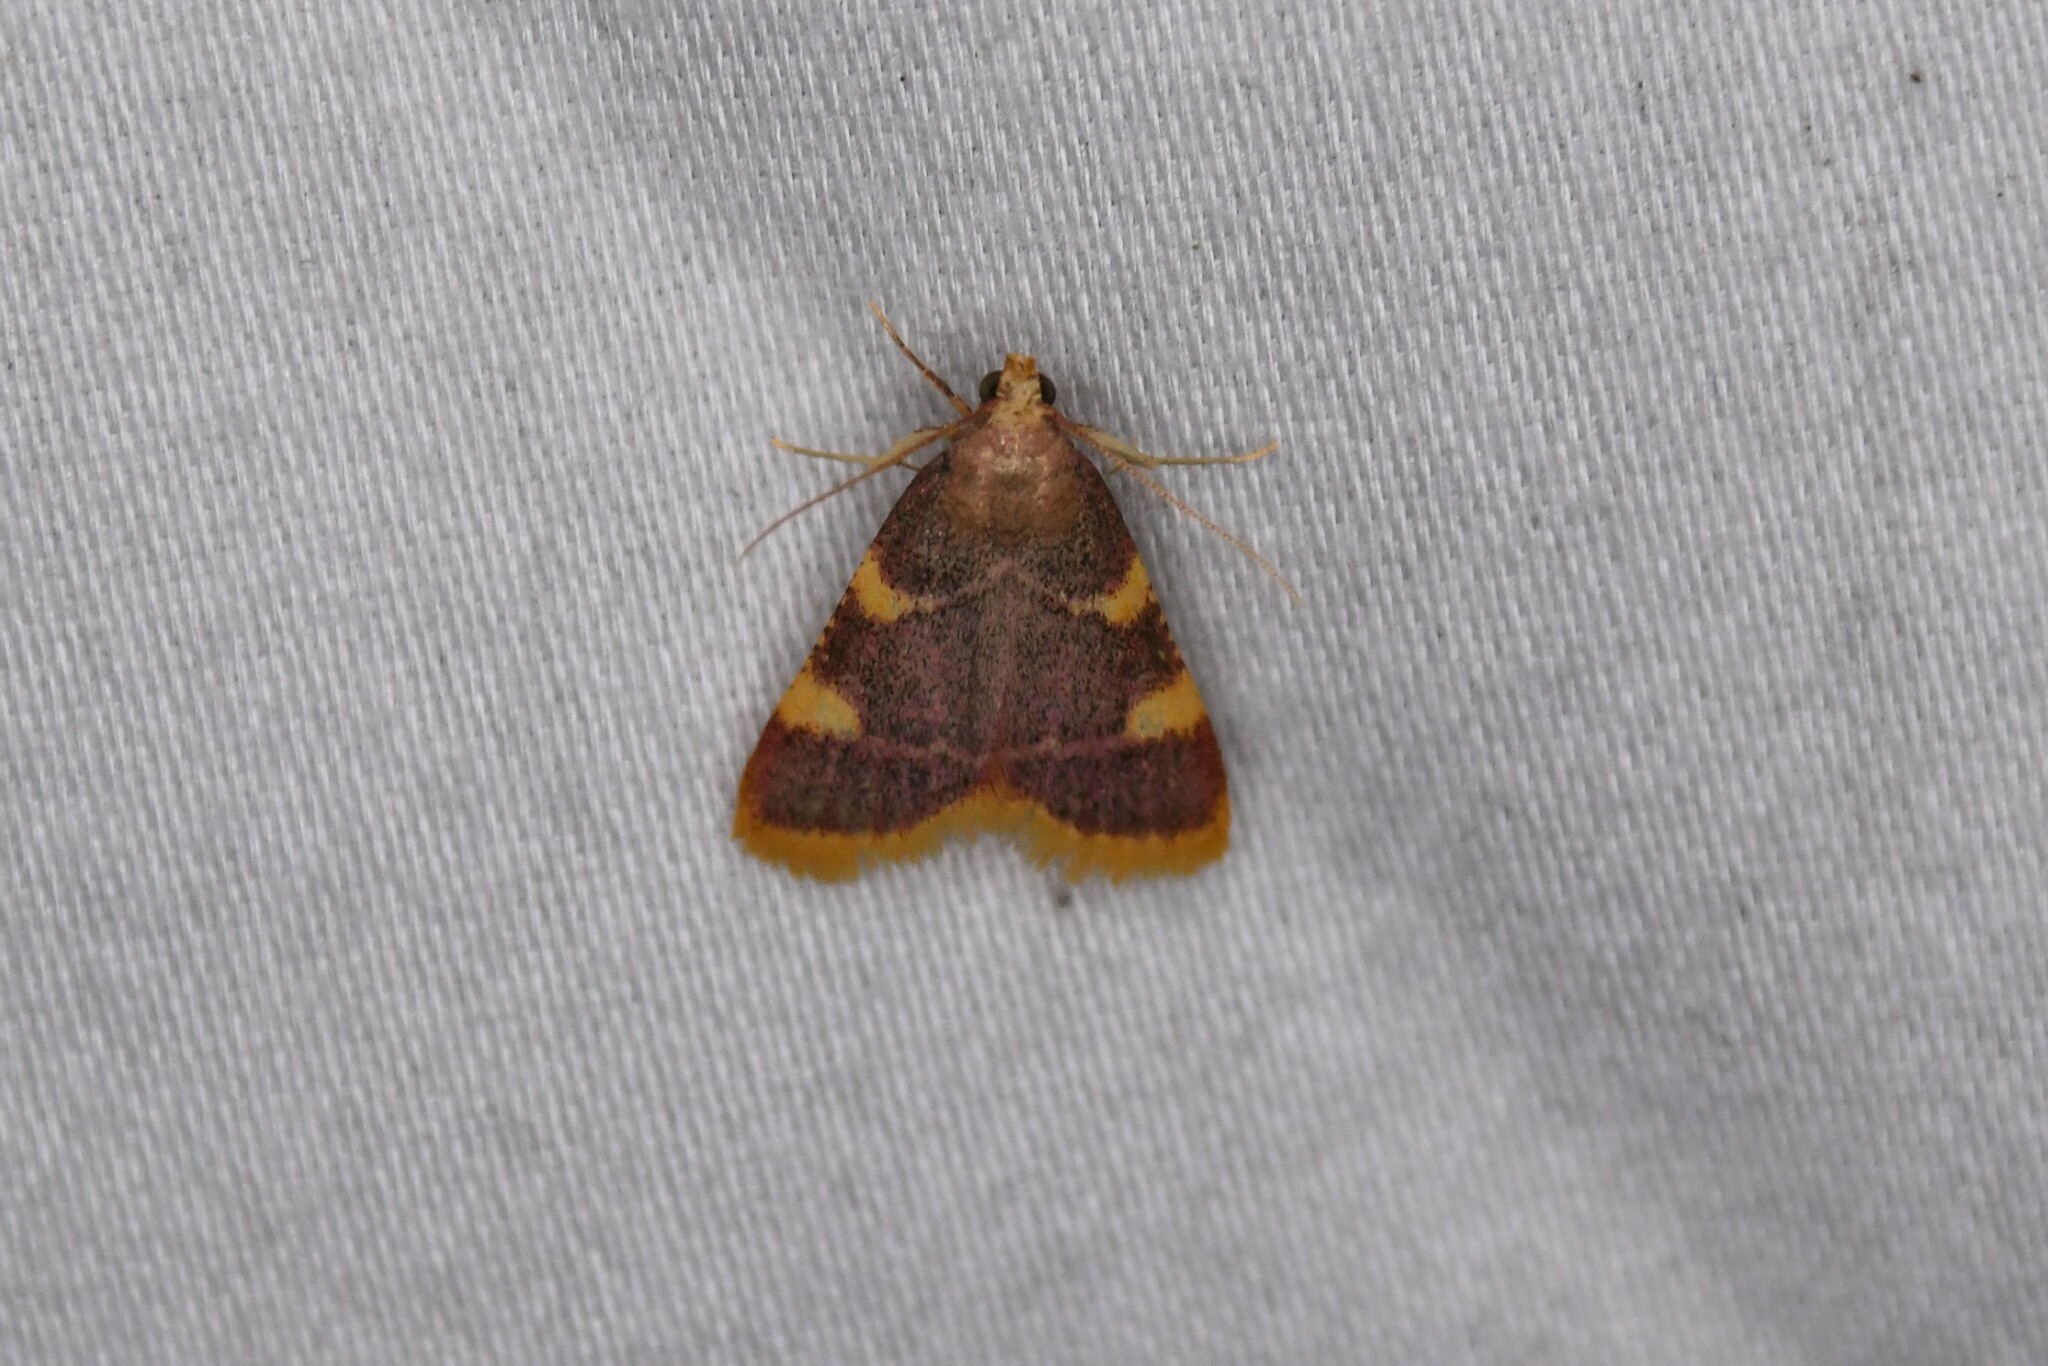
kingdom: Animalia
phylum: Arthropoda
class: Insecta
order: Lepidoptera
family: Pyralidae
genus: Hypsopygia
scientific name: Hypsopygia costalis
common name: Gold triangle
